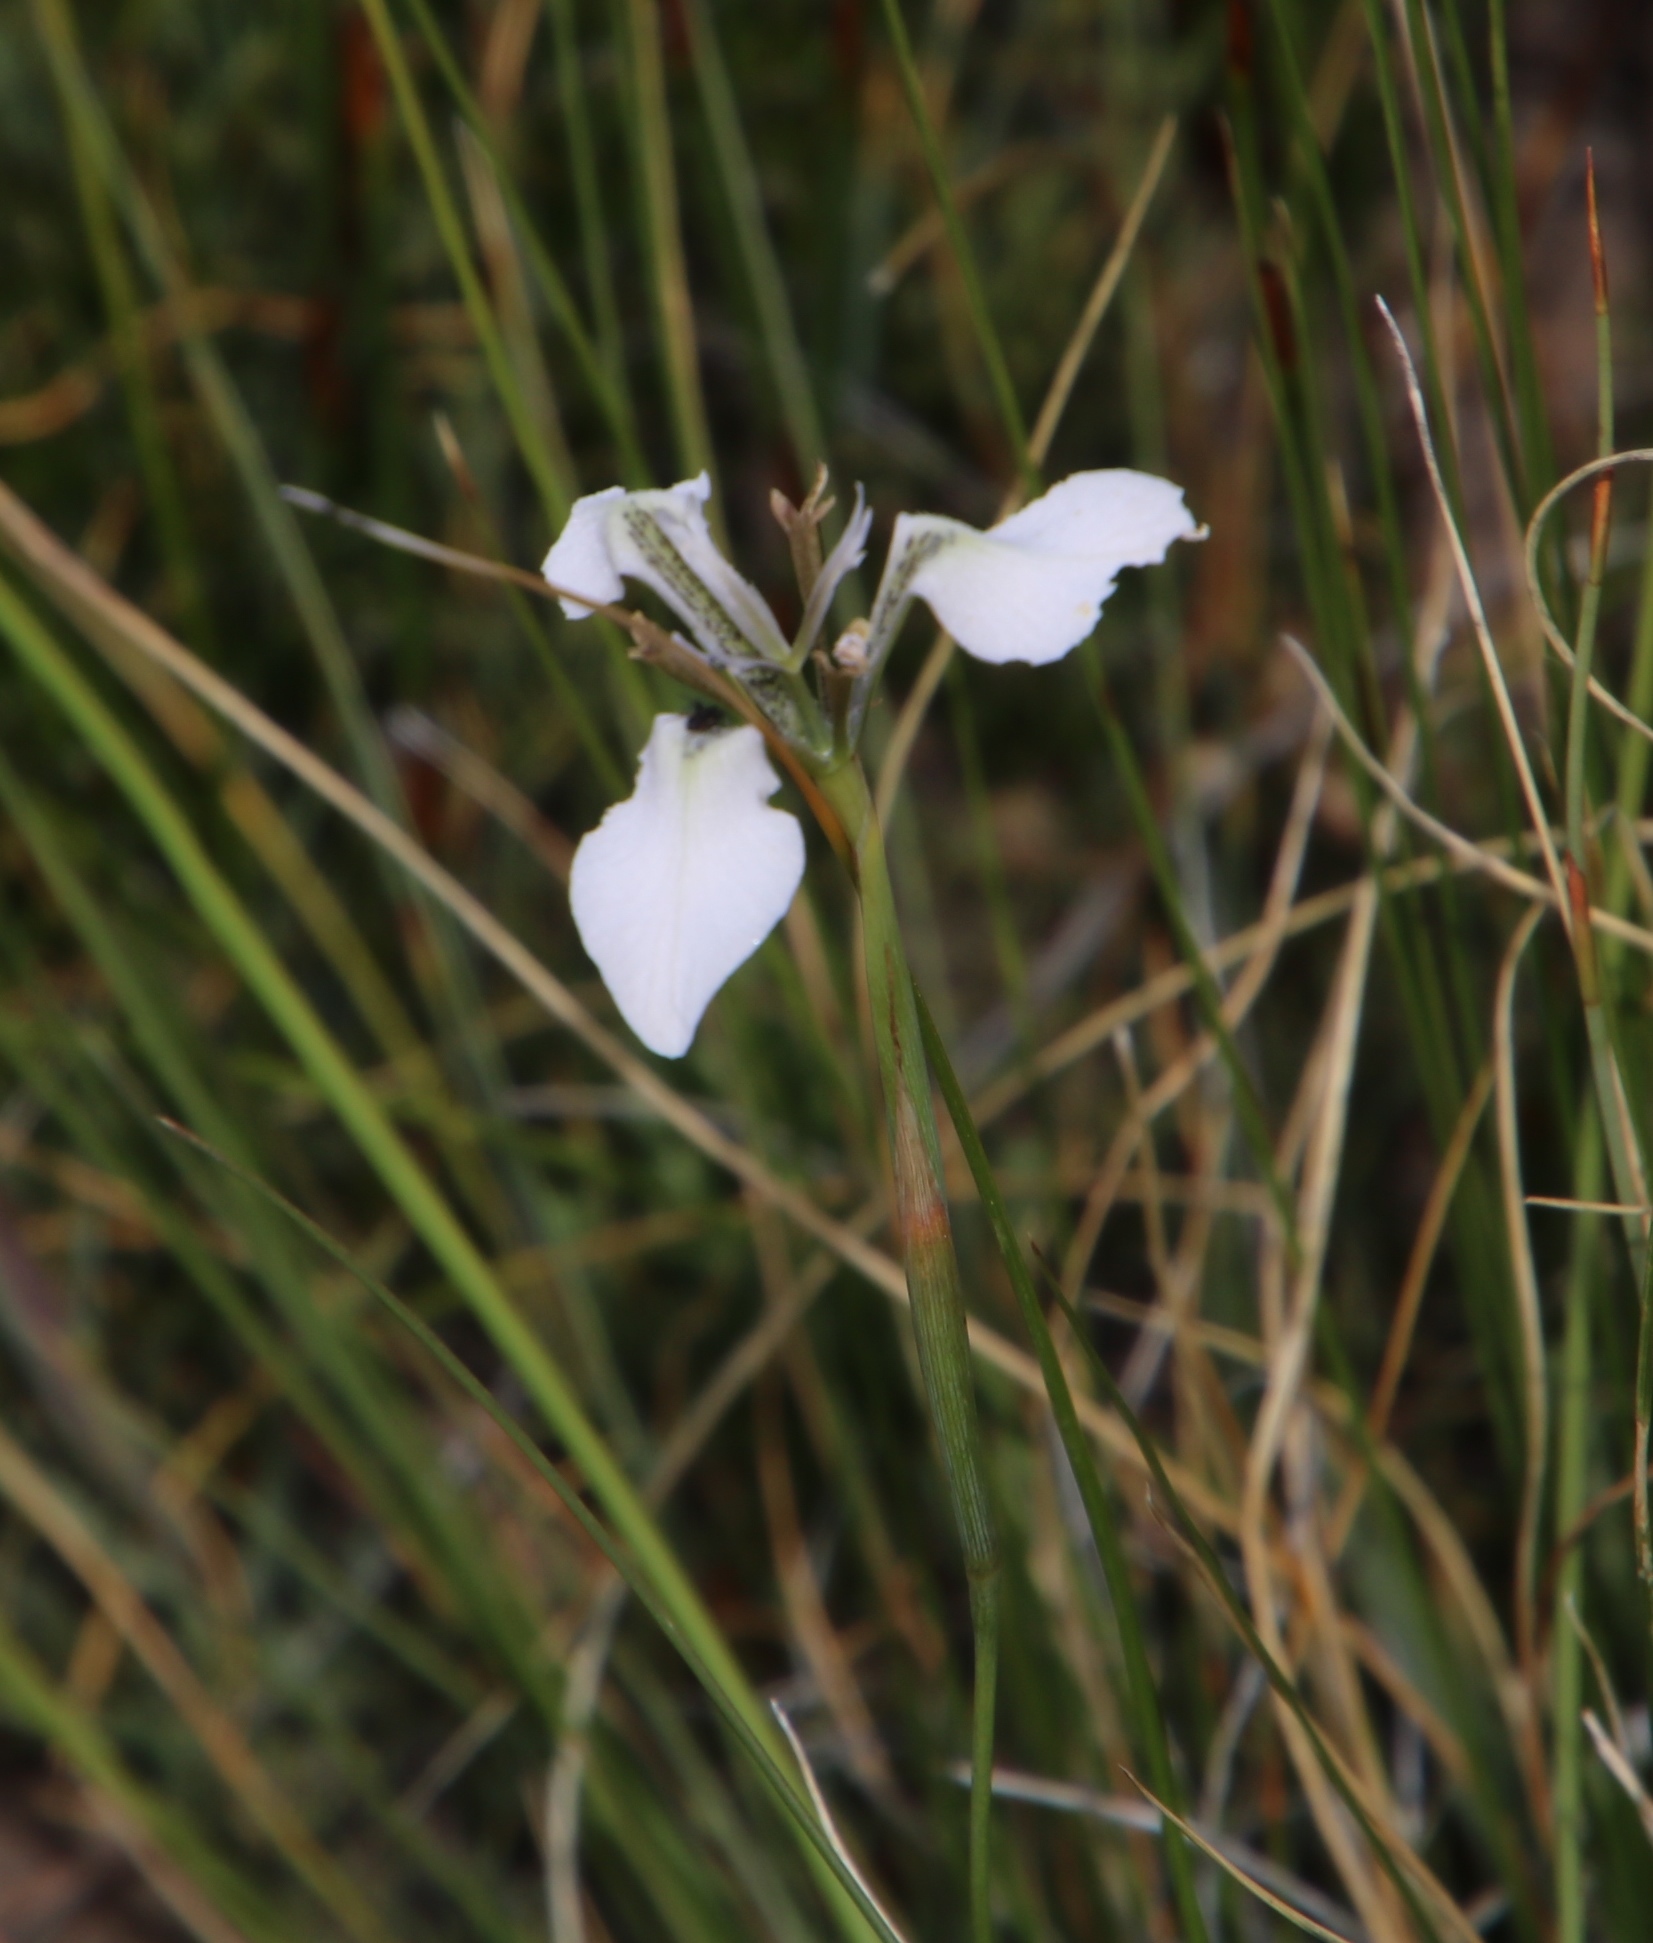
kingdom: Plantae
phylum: Tracheophyta
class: Liliopsida
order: Asparagales
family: Iridaceae
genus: Moraea
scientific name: Moraea tripetala
